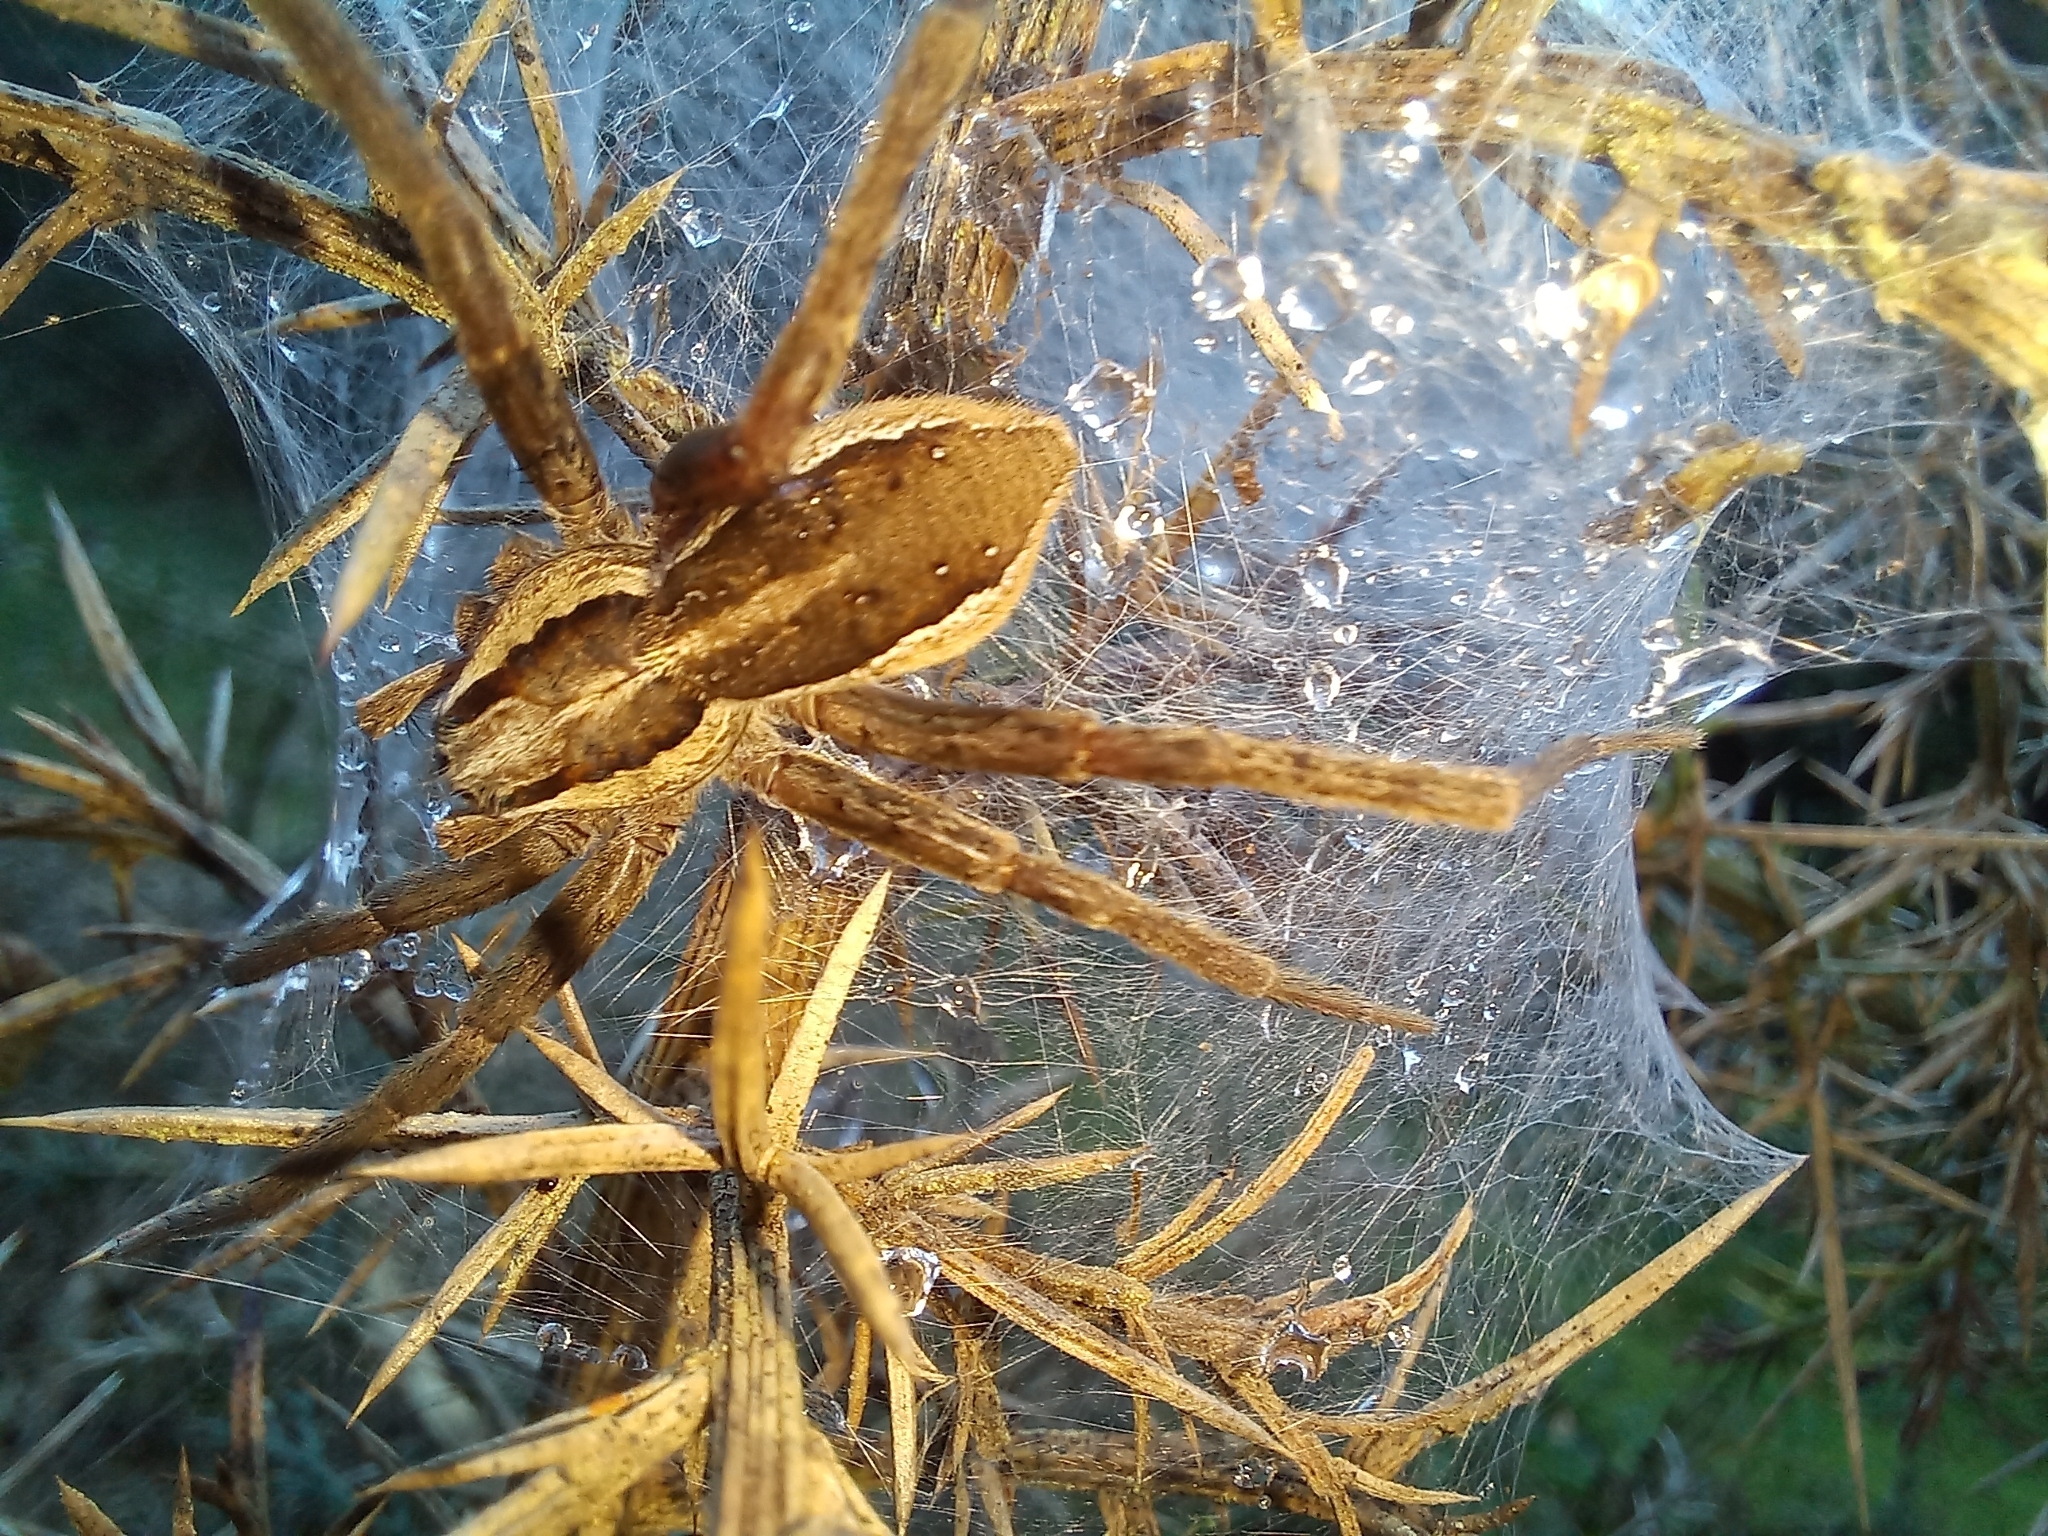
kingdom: Animalia
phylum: Arthropoda
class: Arachnida
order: Araneae
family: Pisauridae
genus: Dolomedes
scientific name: Dolomedes minor
